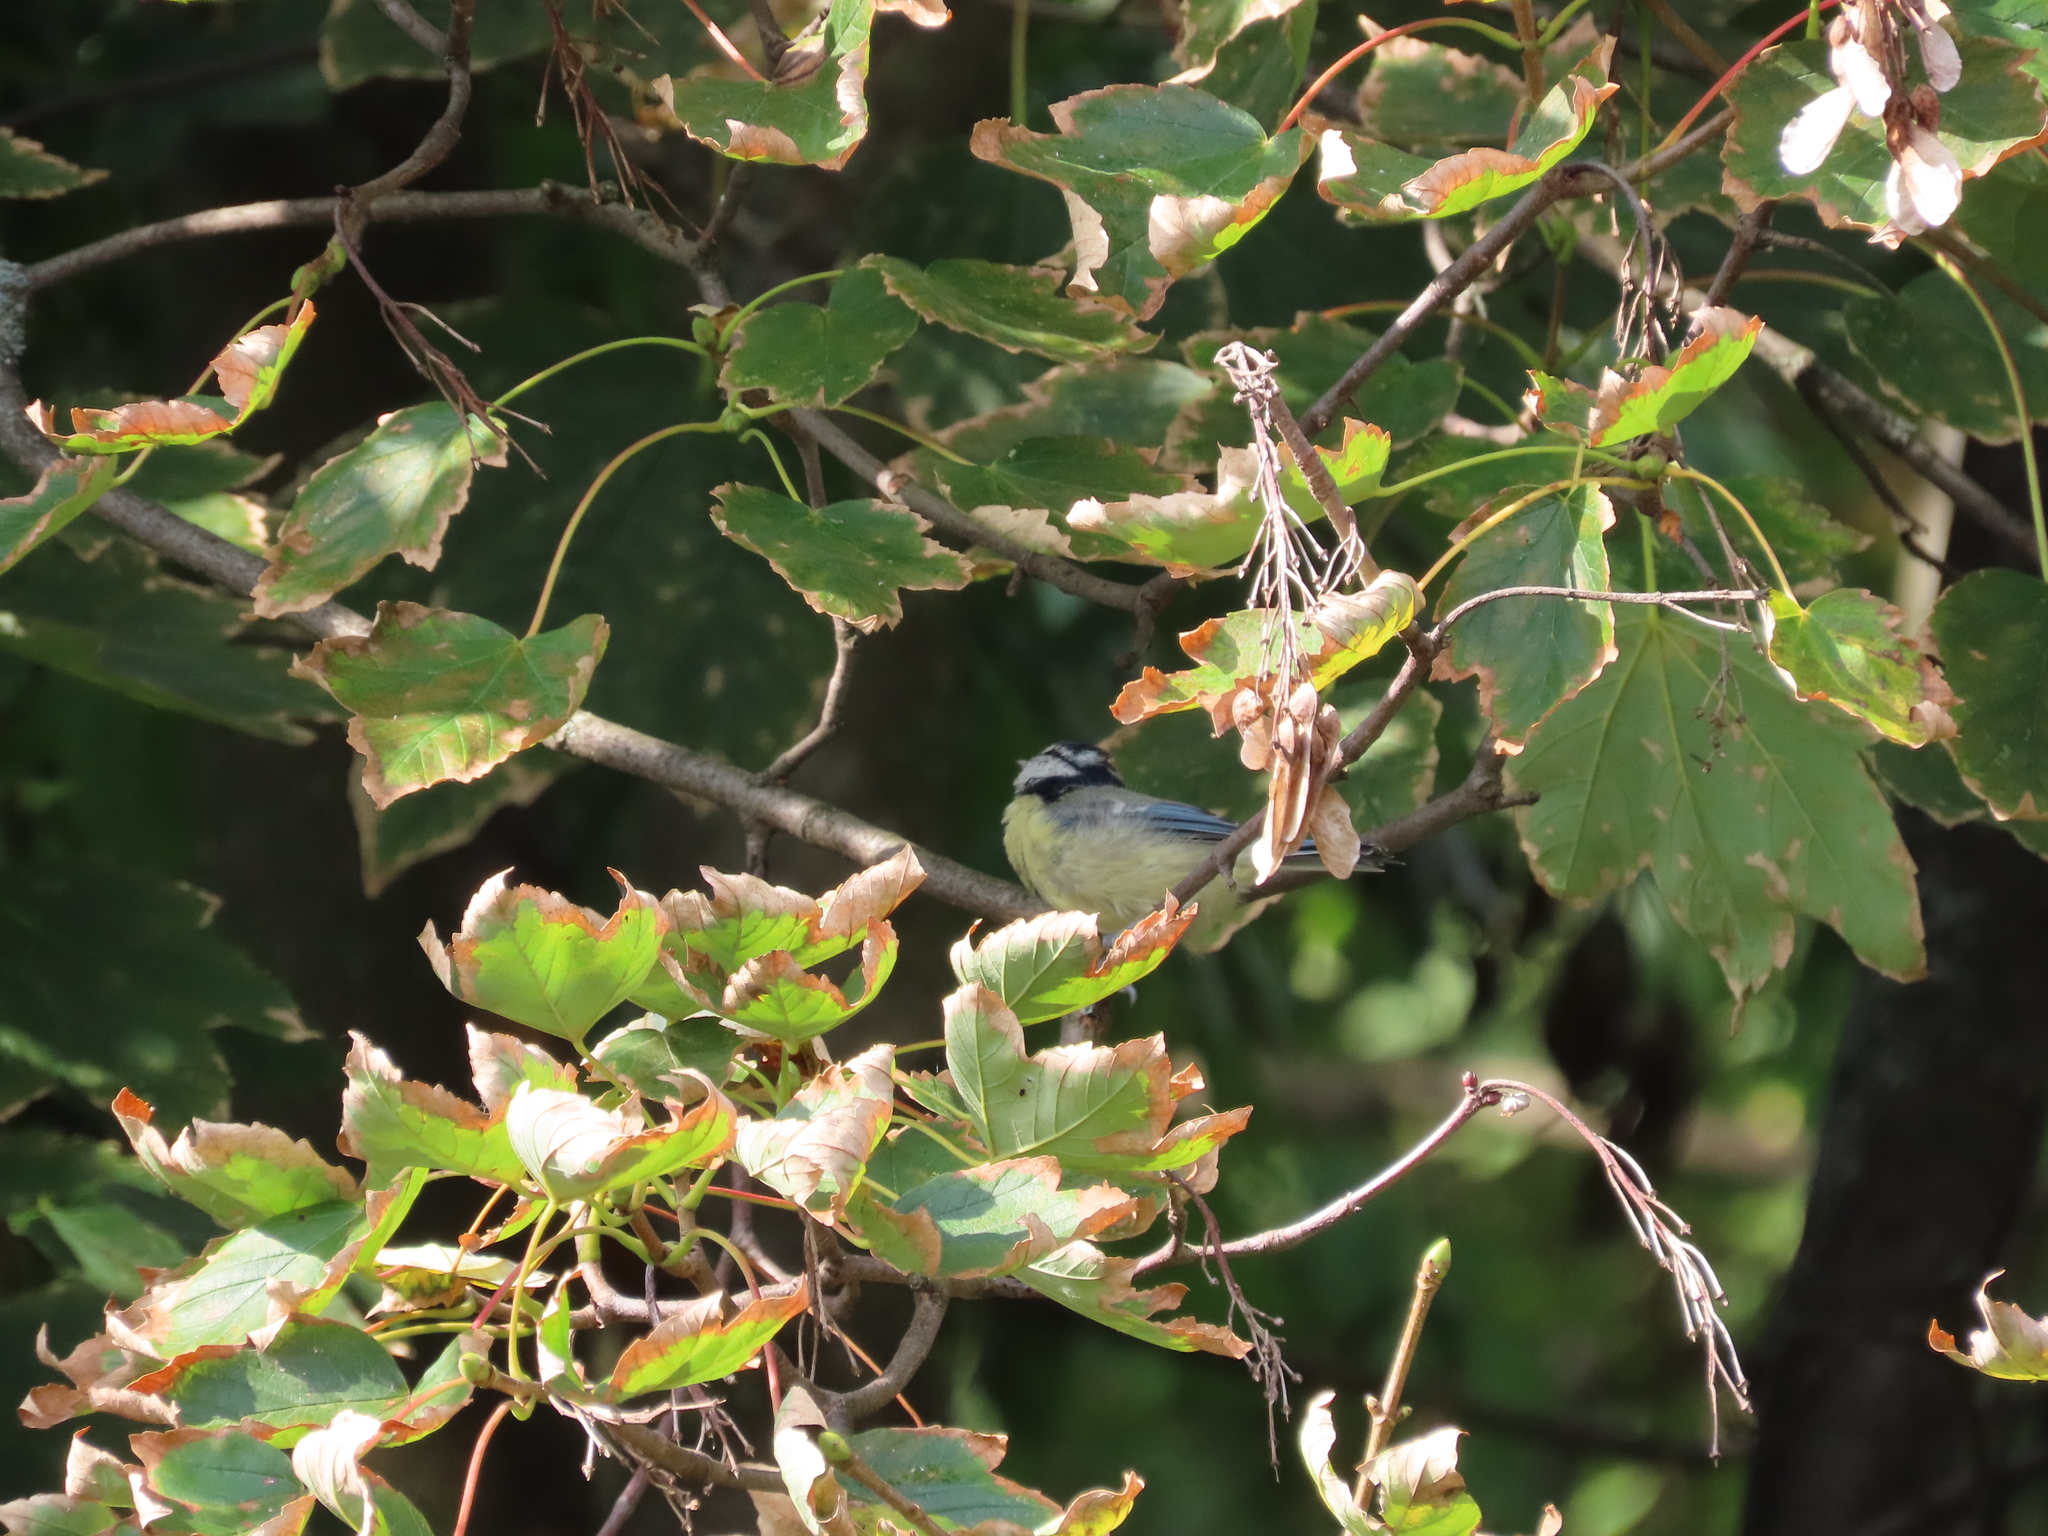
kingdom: Animalia
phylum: Chordata
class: Aves
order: Passeriformes
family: Paridae
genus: Cyanistes
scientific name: Cyanistes caeruleus
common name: Eurasian blue tit
